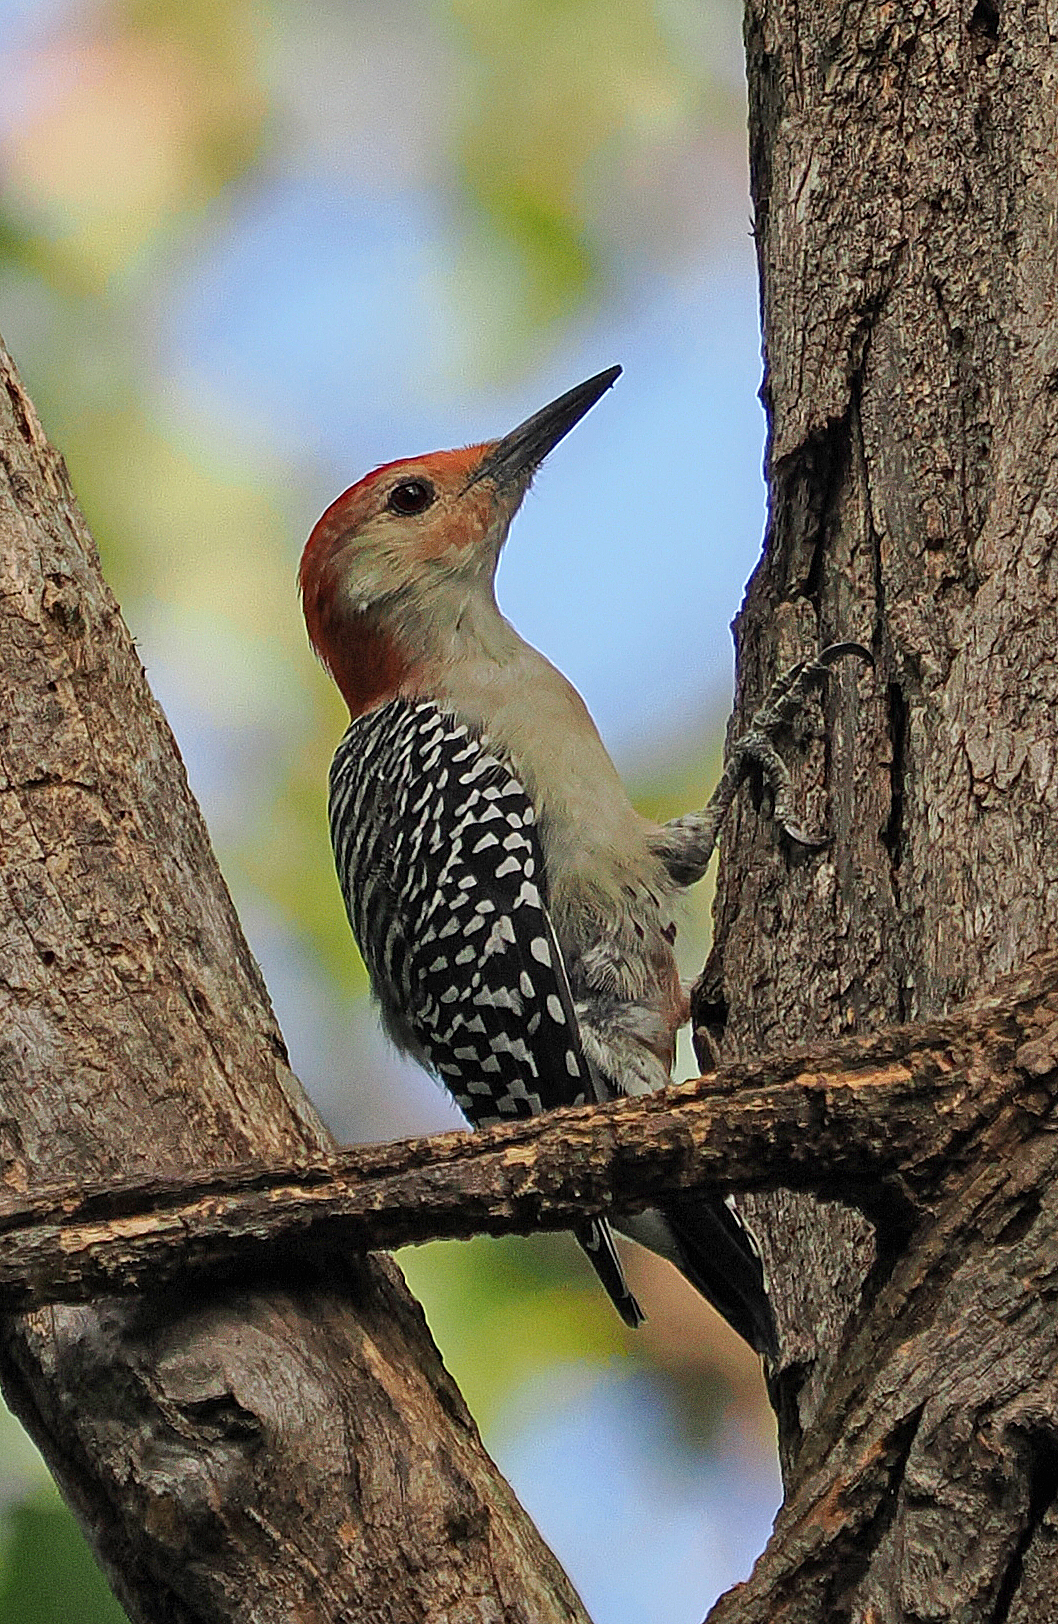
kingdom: Animalia
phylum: Chordata
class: Aves
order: Piciformes
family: Picidae
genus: Melanerpes
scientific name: Melanerpes carolinus
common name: Red-bellied woodpecker
